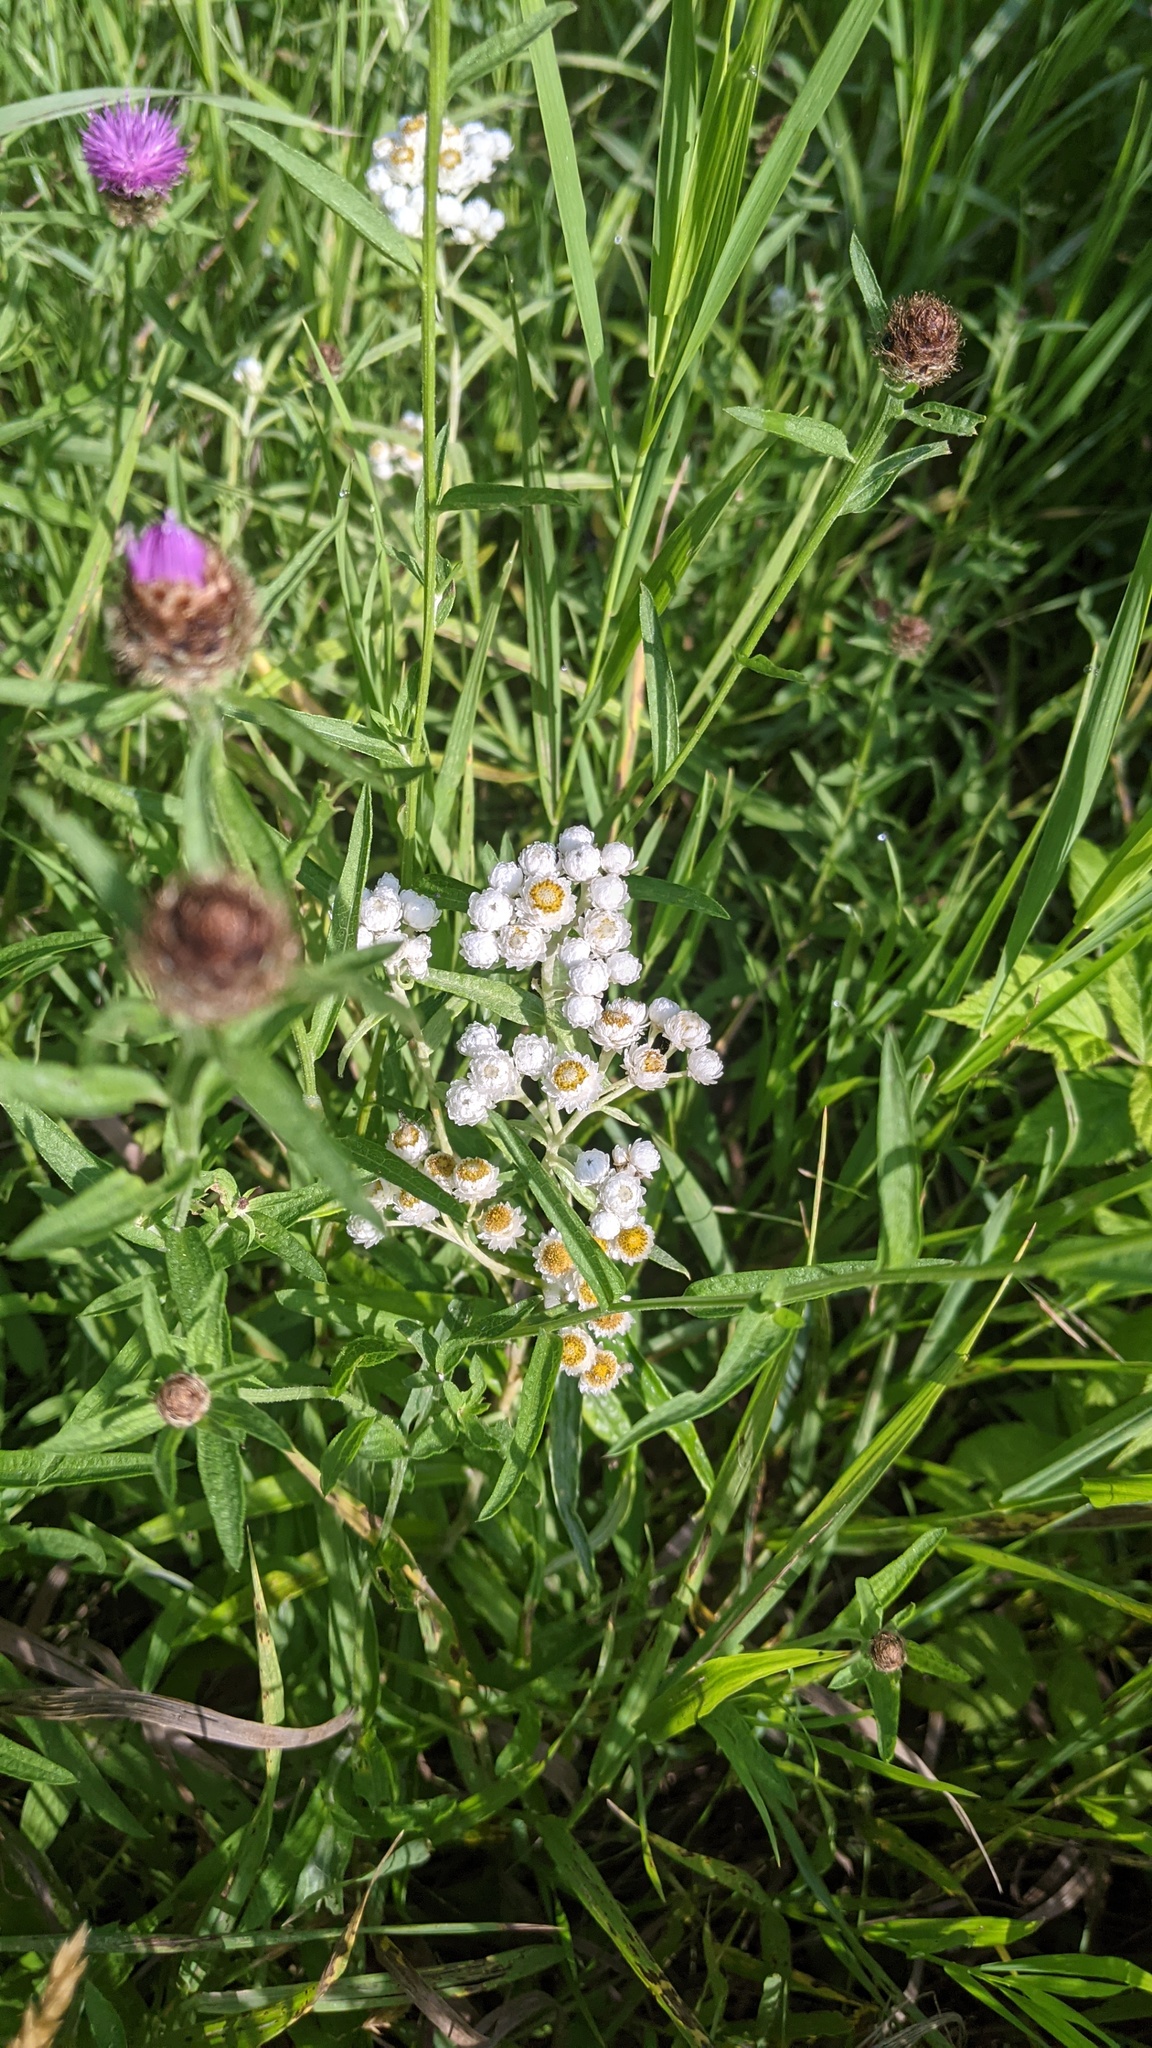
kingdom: Plantae
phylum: Tracheophyta
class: Magnoliopsida
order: Asterales
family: Asteraceae
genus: Anaphalis
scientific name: Anaphalis margaritacea
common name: Pearly everlasting
